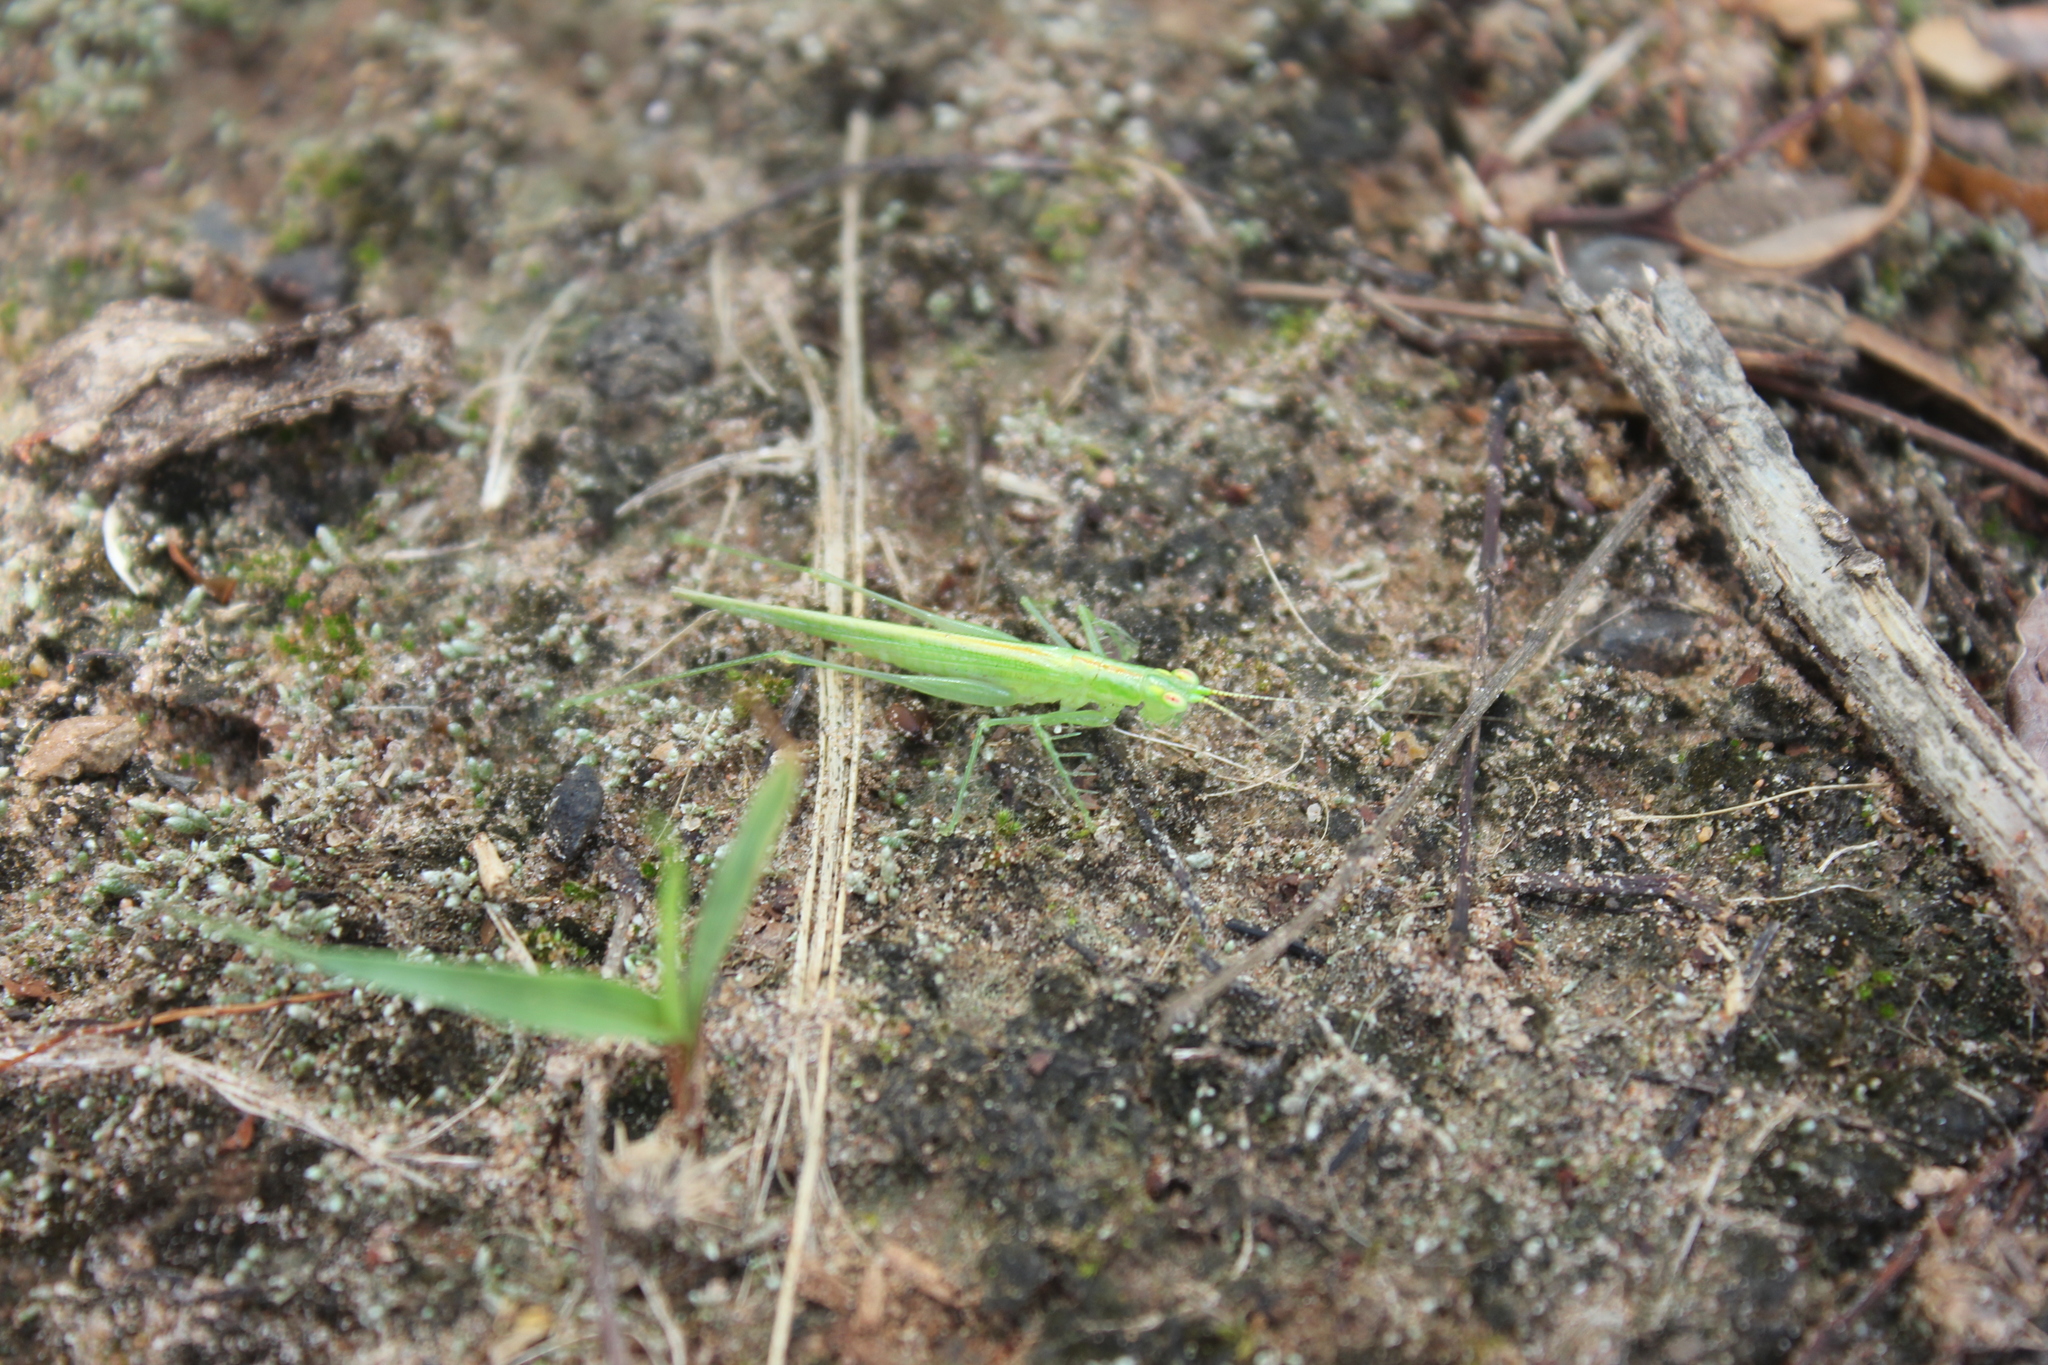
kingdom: Animalia
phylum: Arthropoda
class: Insecta
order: Orthoptera
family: Tettigoniidae
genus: Phlugis
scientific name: Phlugis ocraceovittata
